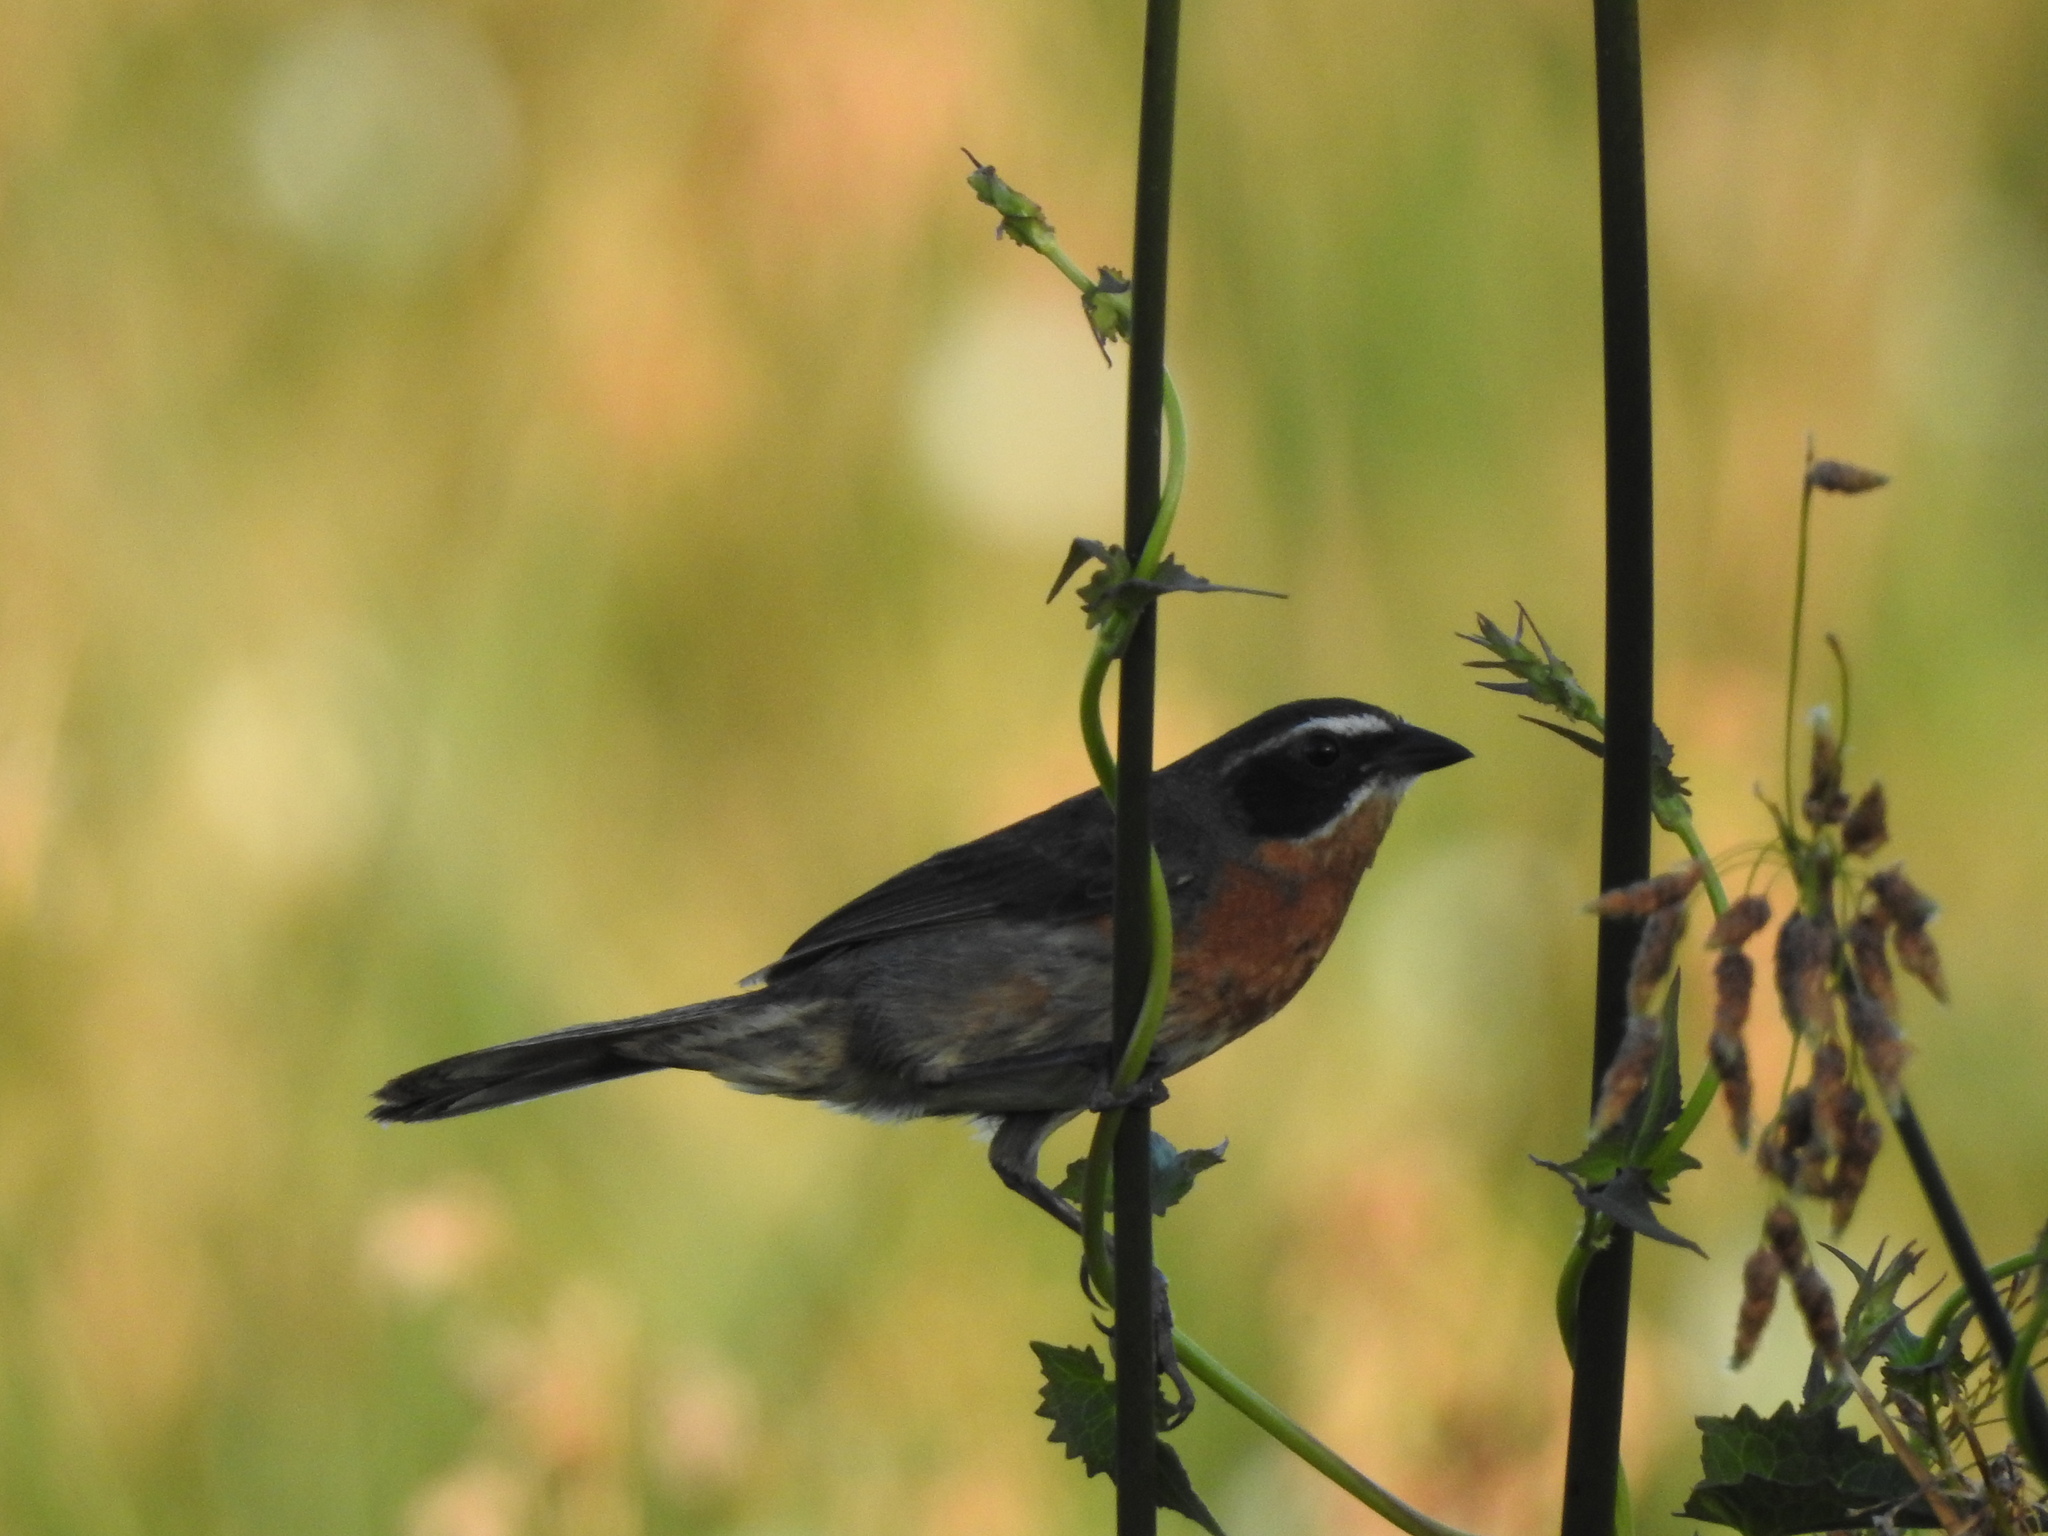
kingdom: Animalia
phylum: Chordata
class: Aves
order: Passeriformes
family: Thraupidae
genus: Poospiza
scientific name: Poospiza nigrorufa
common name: Black-and-rufous warbling finch
